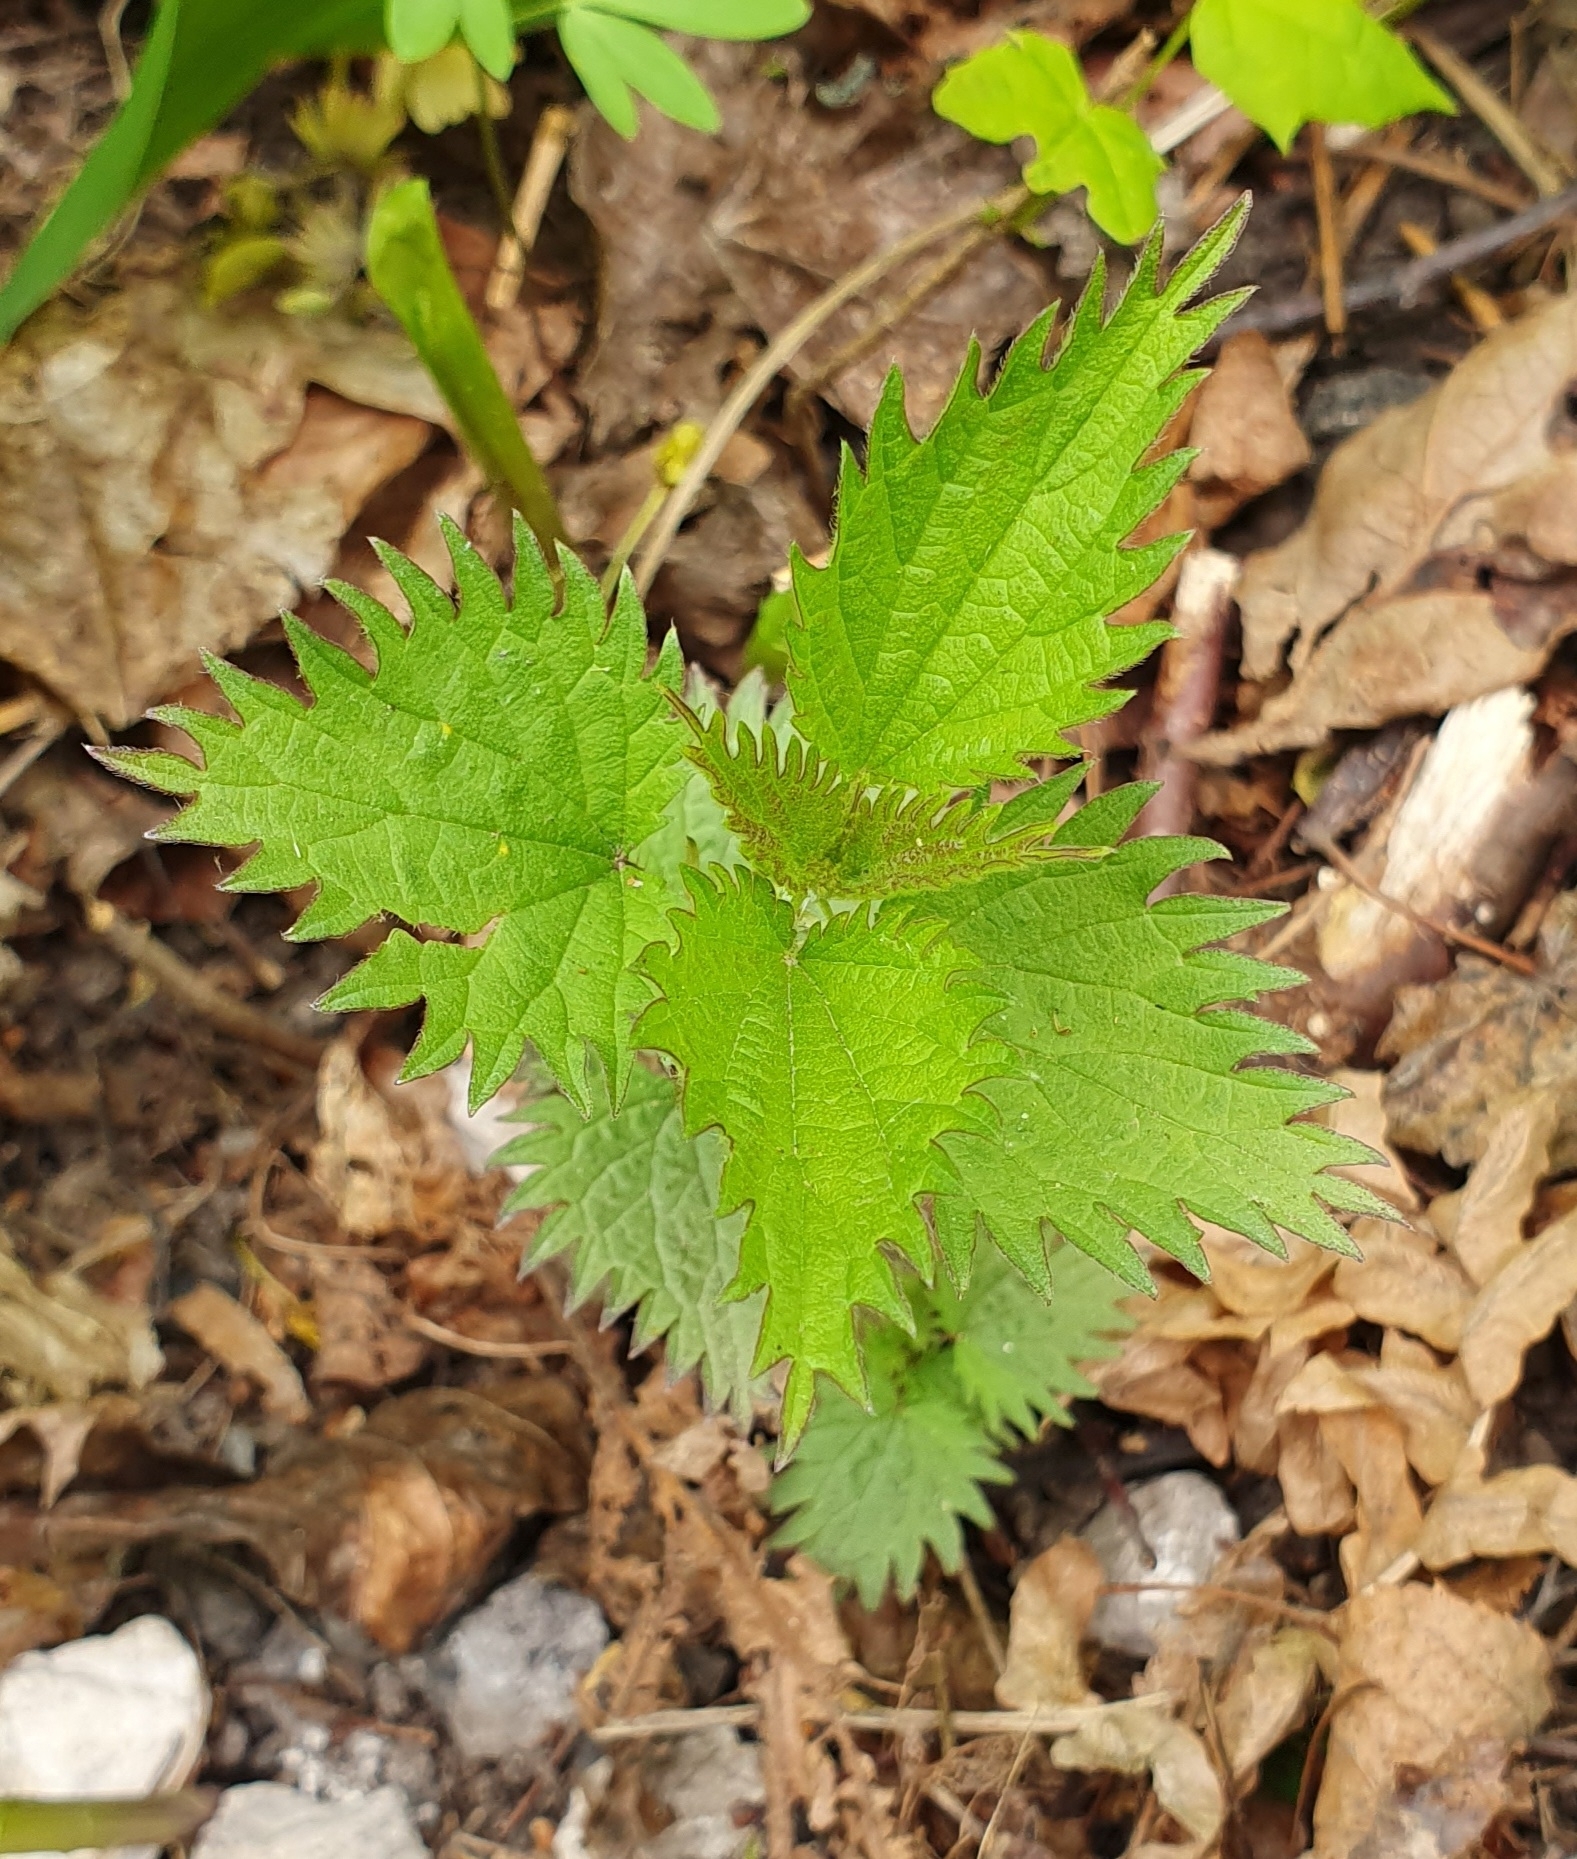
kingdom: Plantae
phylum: Tracheophyta
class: Magnoliopsida
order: Rosales
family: Urticaceae
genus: Urtica
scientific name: Urtica dioica
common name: Common nettle
